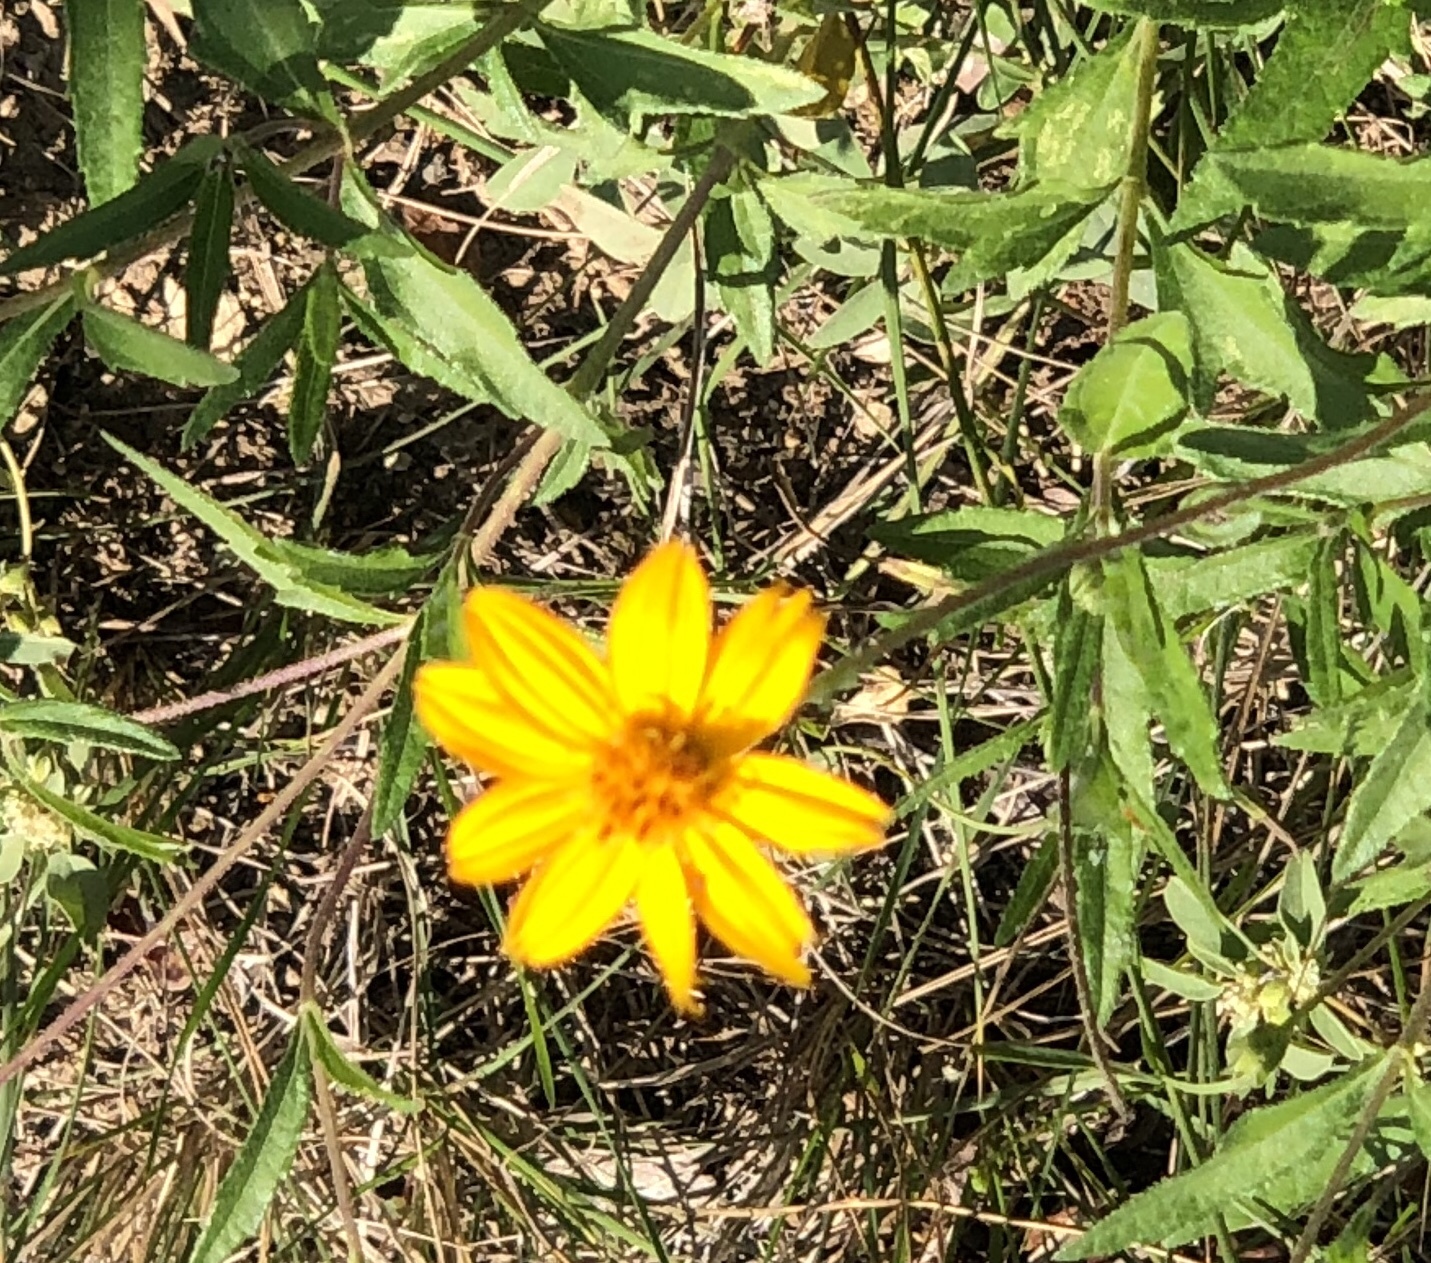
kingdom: Plantae
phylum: Tracheophyta
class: Magnoliopsida
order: Asterales
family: Asteraceae
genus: Wedelia
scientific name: Wedelia acapulcensis
